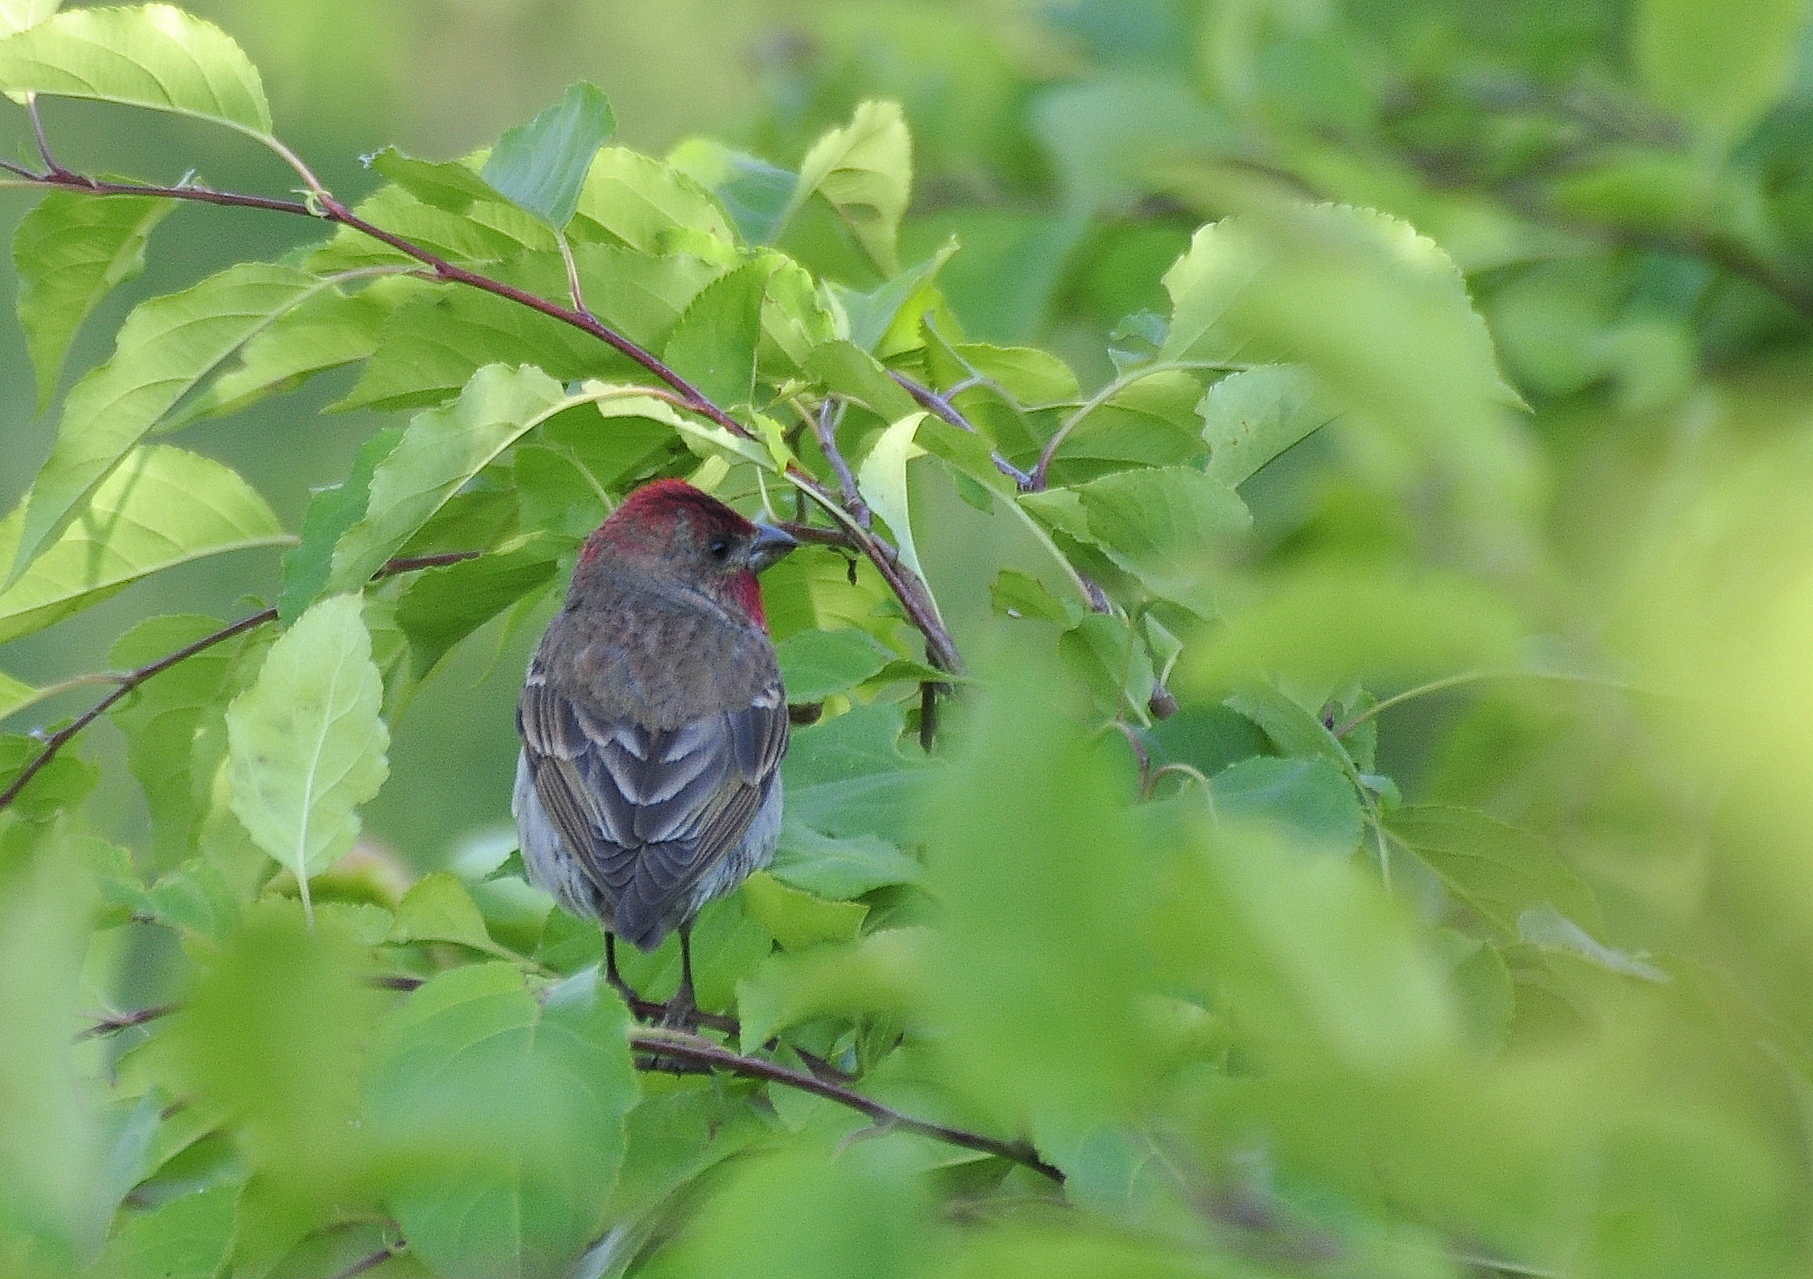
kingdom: Animalia
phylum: Chordata
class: Aves
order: Passeriformes
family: Fringillidae
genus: Carpodacus
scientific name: Carpodacus erythrinus
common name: Common rosefinch
